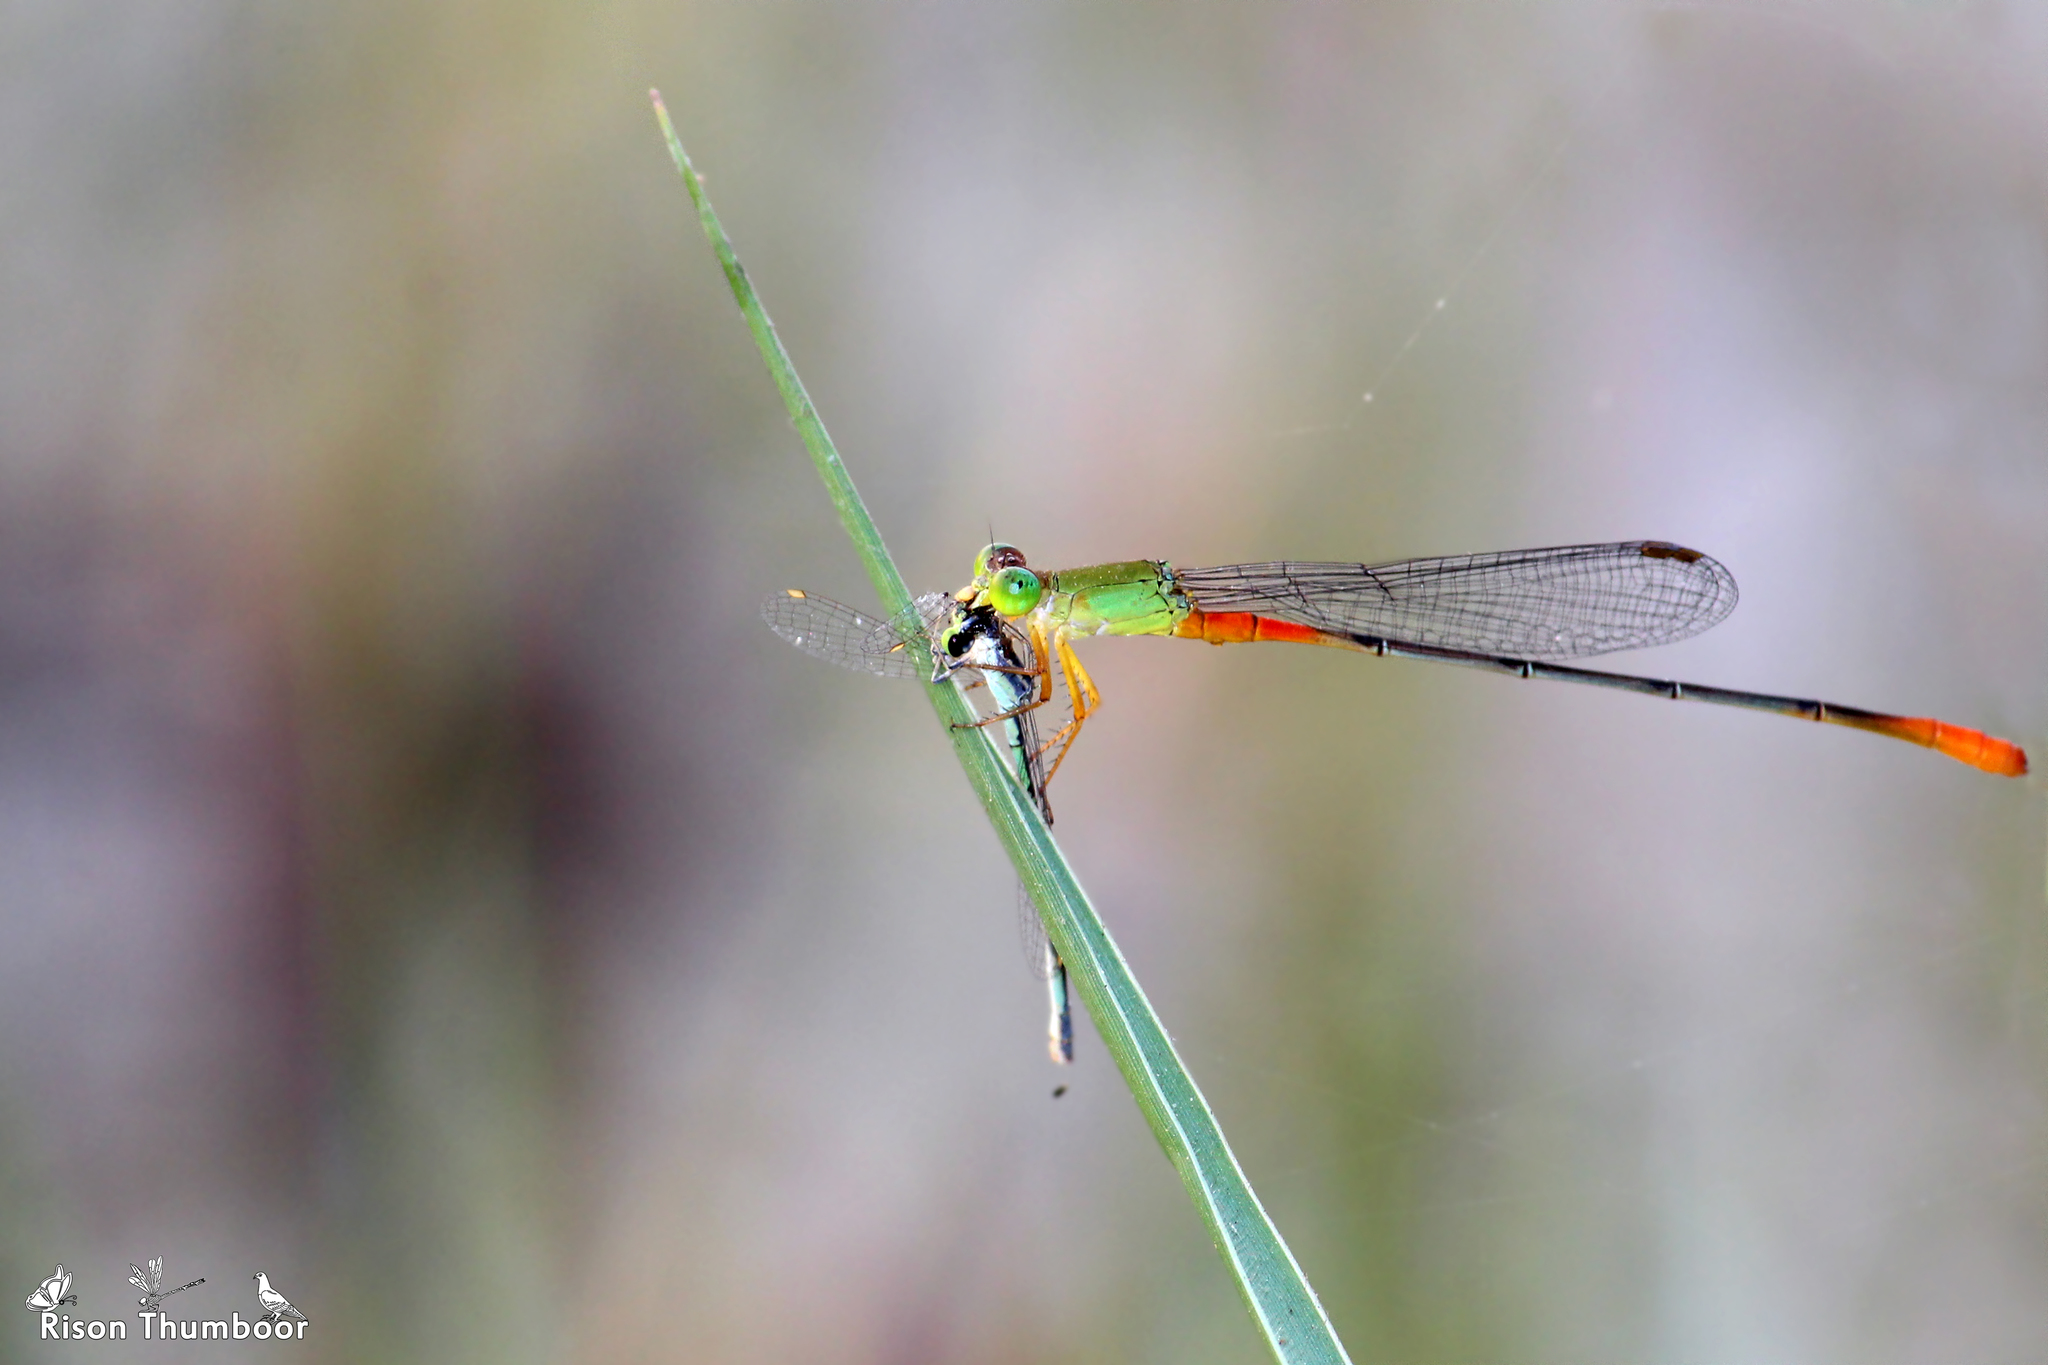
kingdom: Animalia
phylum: Arthropoda
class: Insecta
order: Odonata
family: Coenagrionidae
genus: Ceriagrion
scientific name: Ceriagrion cerinorubellum
